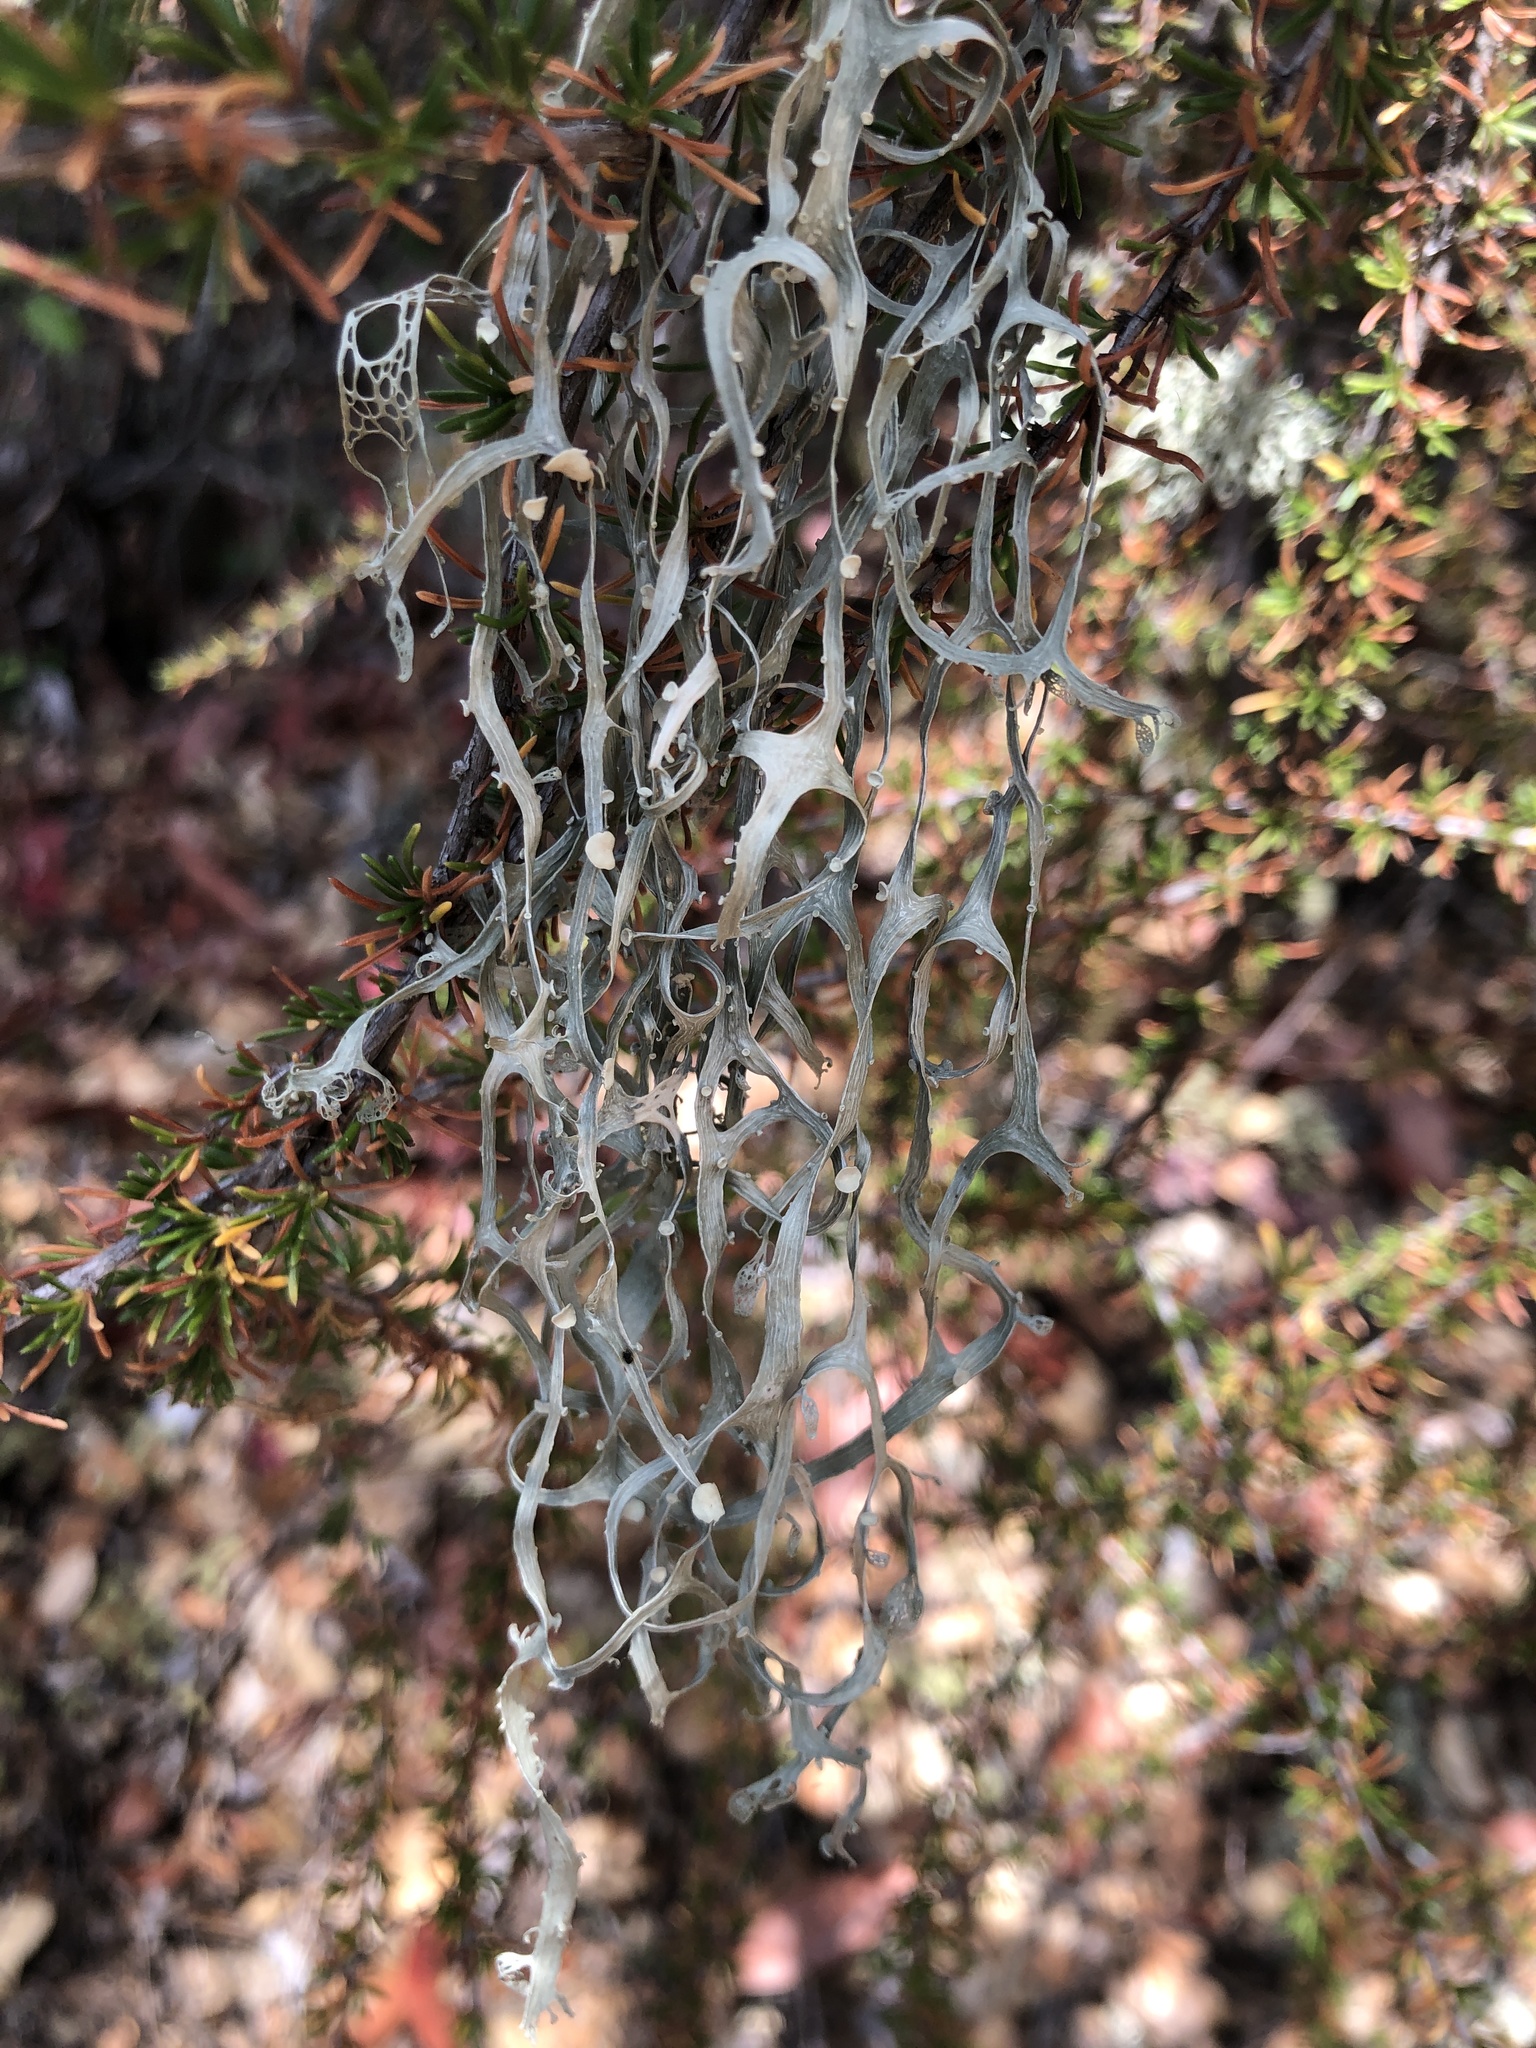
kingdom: Fungi
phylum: Ascomycota
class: Lecanoromycetes
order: Lecanorales
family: Ramalinaceae
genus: Ramalina
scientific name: Ramalina menziesii
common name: Lace lichen
